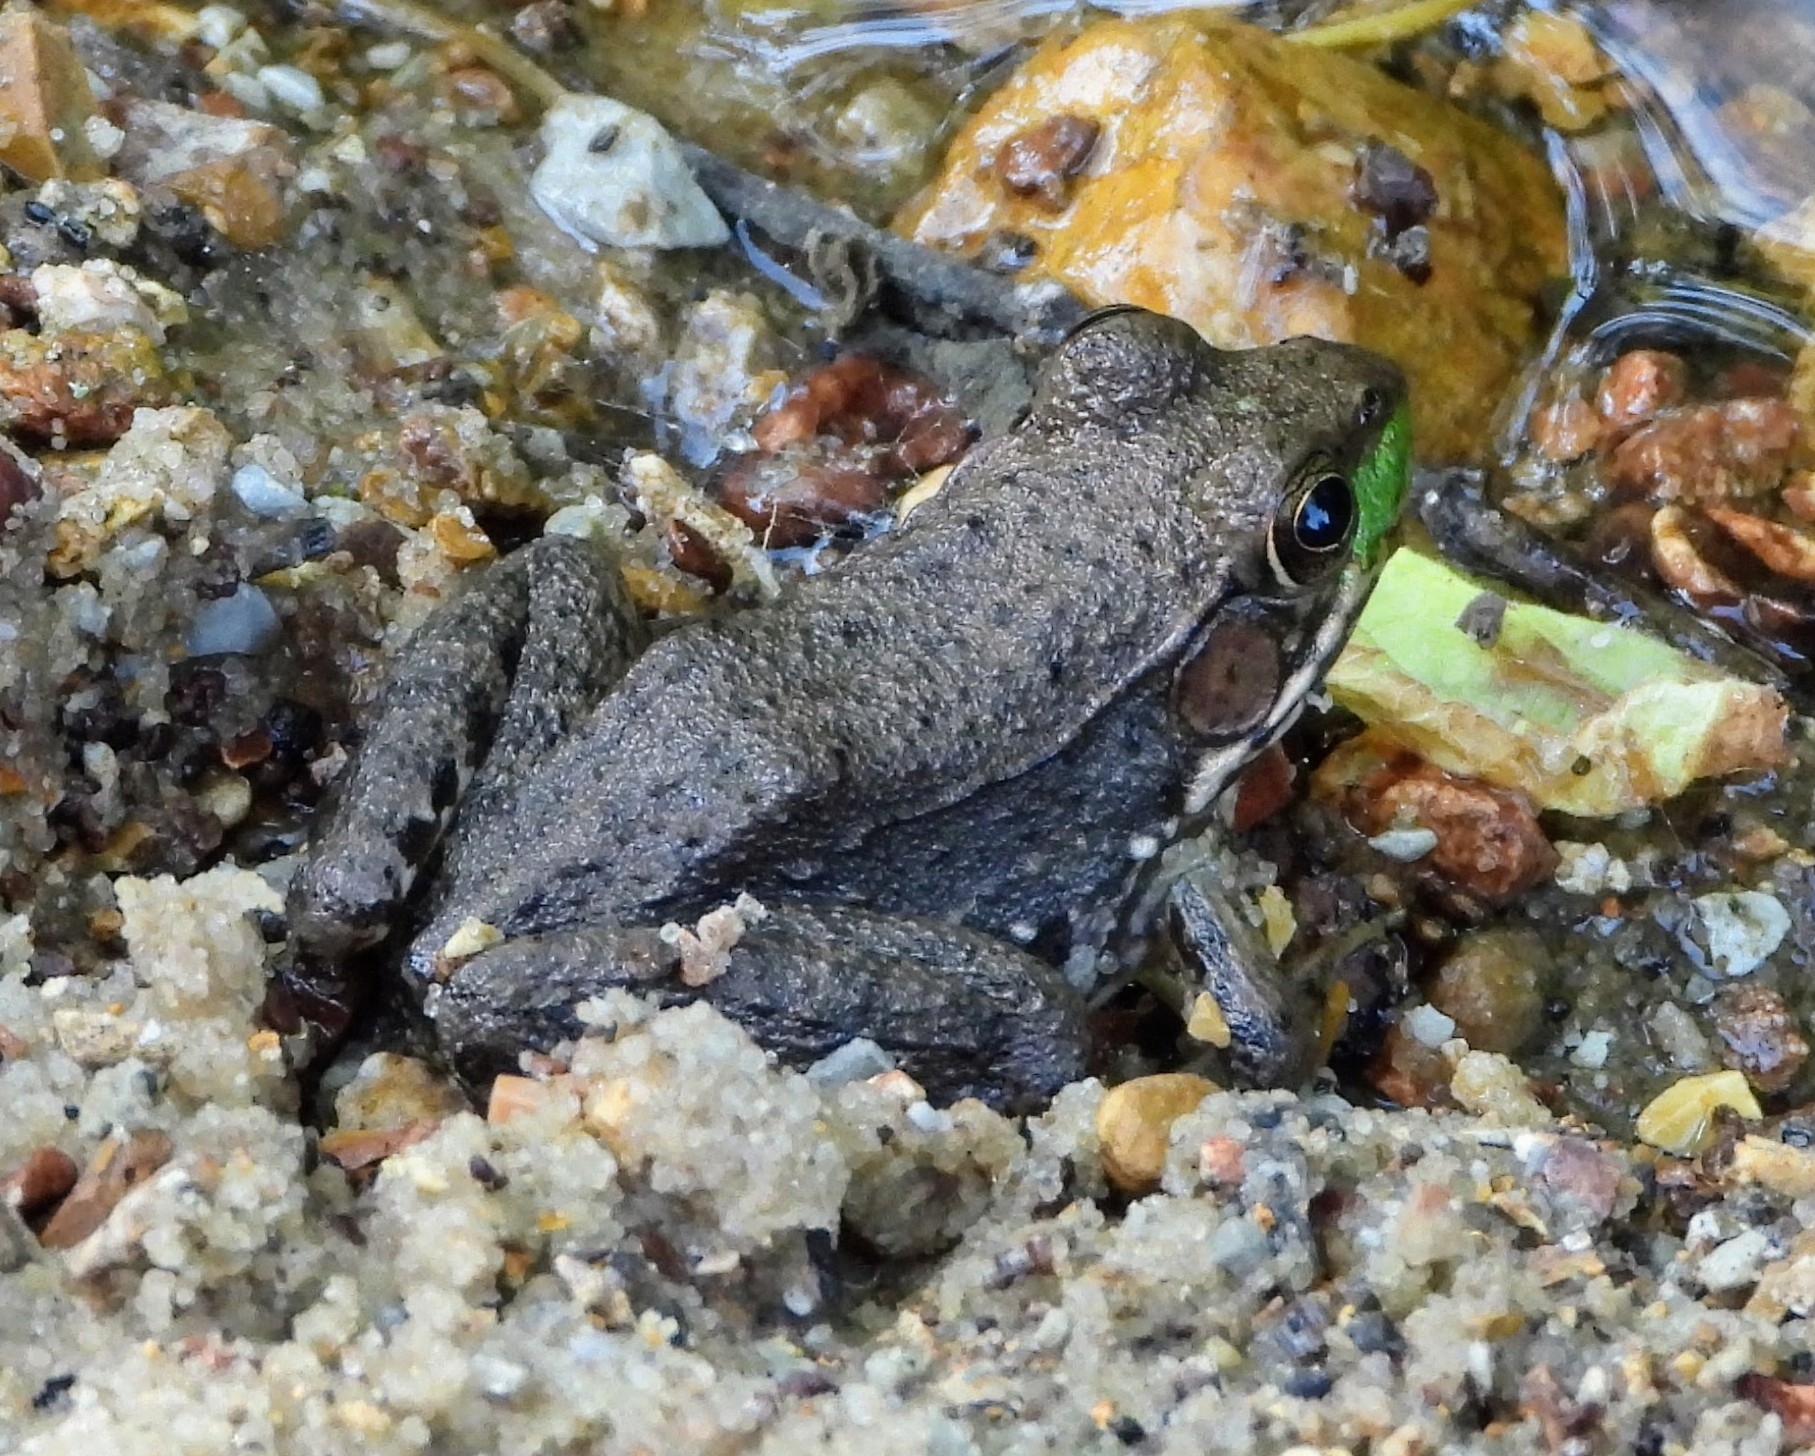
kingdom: Animalia
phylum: Chordata
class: Amphibia
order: Anura
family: Ranidae
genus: Lithobates
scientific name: Lithobates clamitans
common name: Green frog
